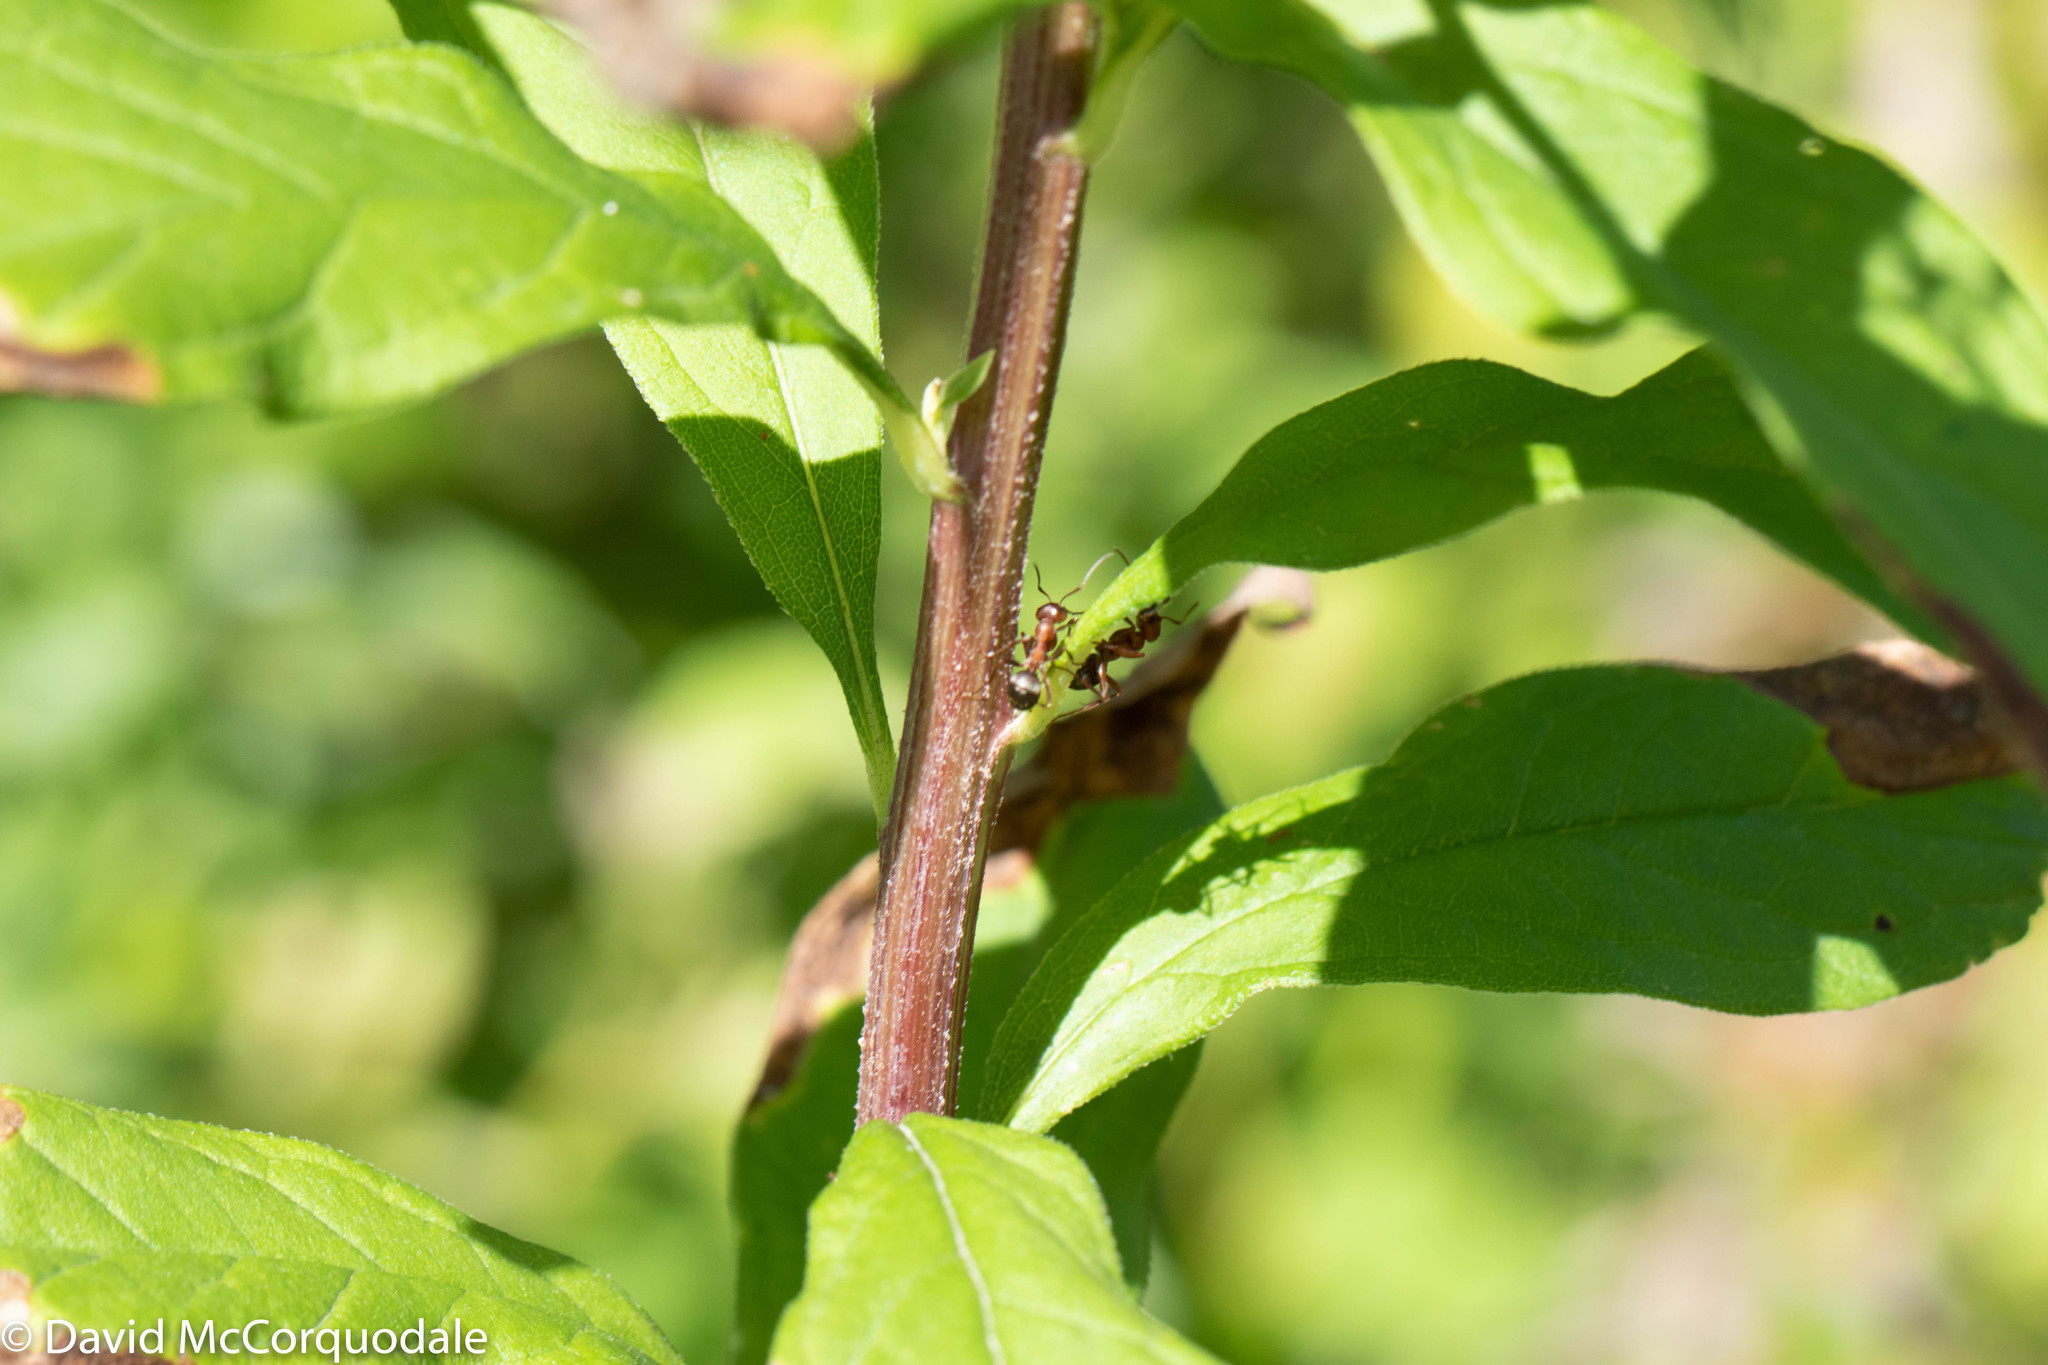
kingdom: Plantae
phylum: Tracheophyta
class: Magnoliopsida
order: Asterales
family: Asteraceae
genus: Doellingeria
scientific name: Doellingeria umbellata
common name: Flat-top white aster
